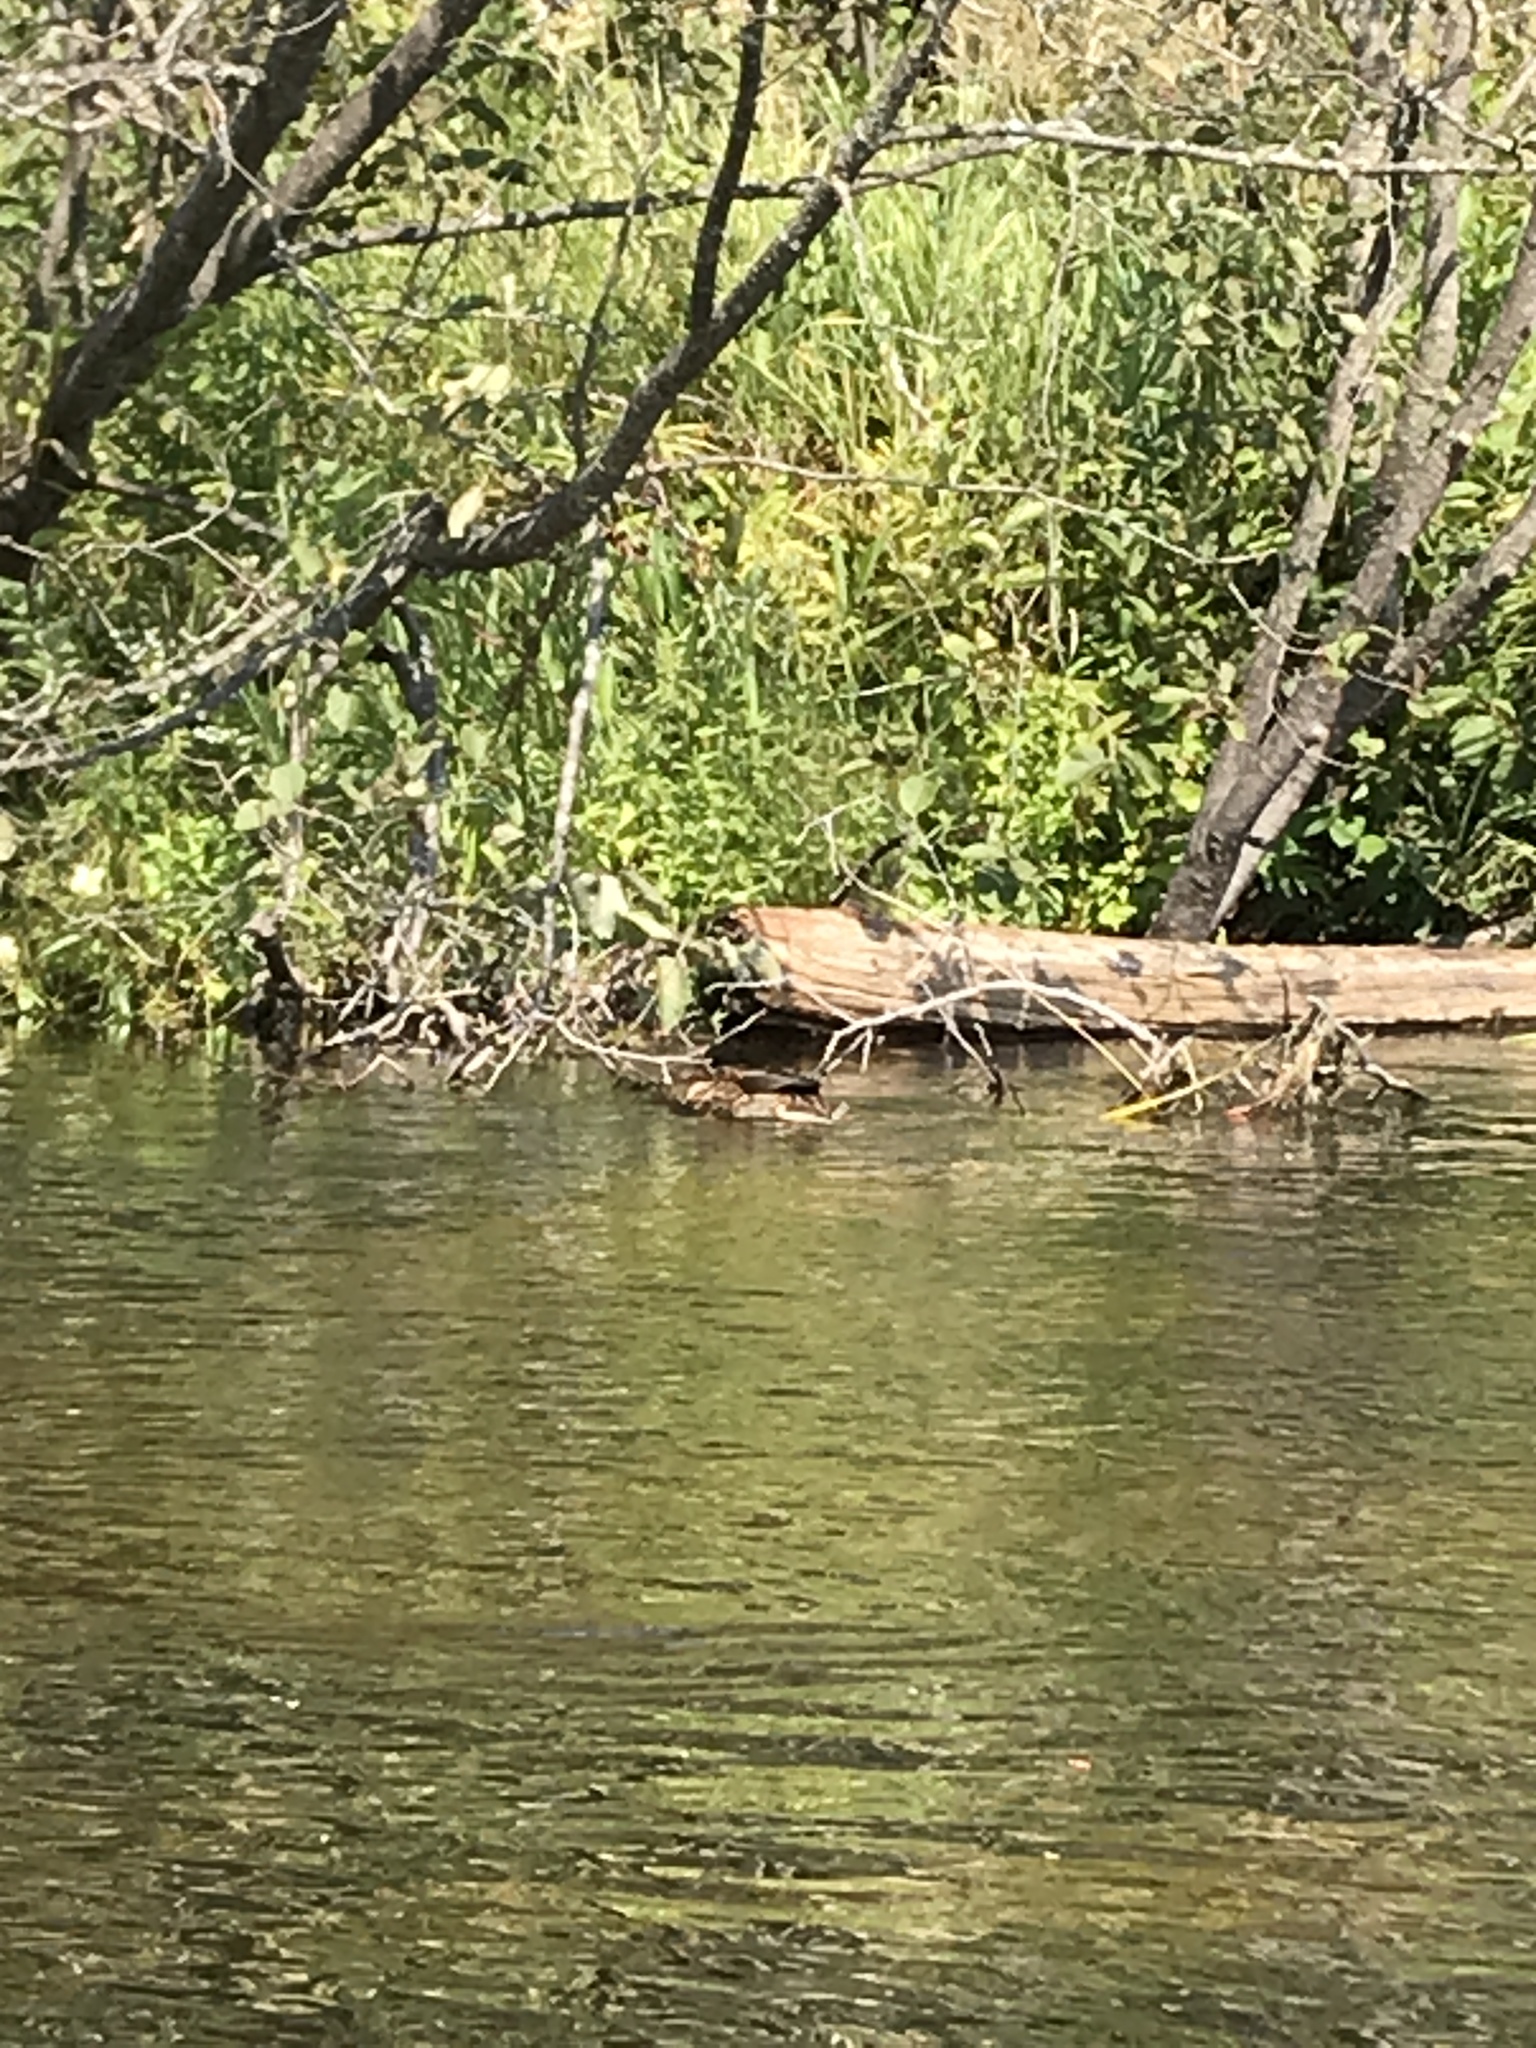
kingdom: Animalia
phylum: Chordata
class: Aves
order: Anseriformes
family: Anatidae
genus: Anas
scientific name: Anas platyrhynchos
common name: Mallard
